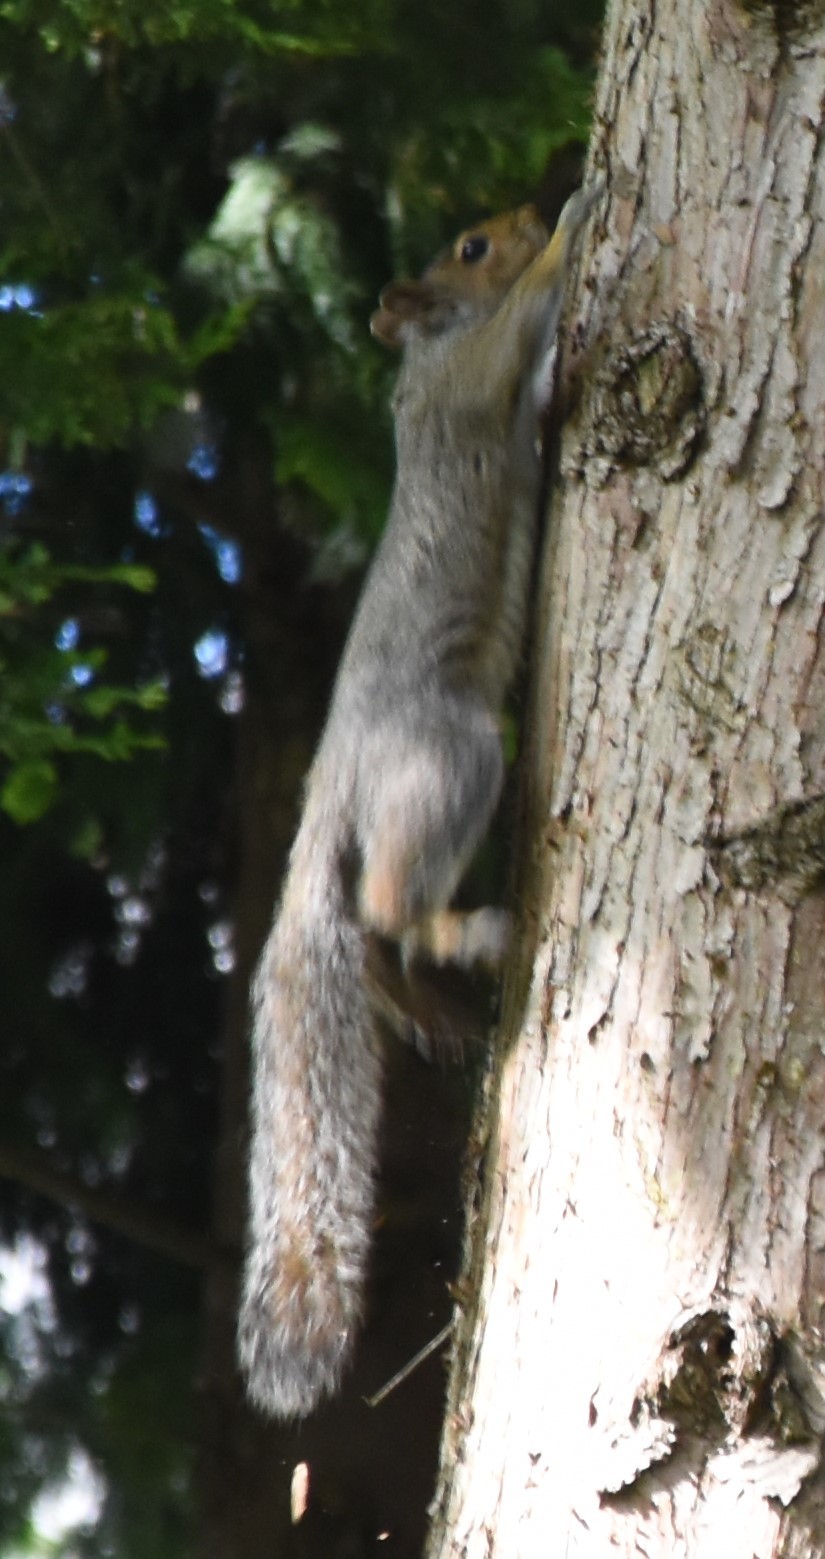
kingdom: Animalia
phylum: Chordata
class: Mammalia
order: Rodentia
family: Sciuridae
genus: Sciurus
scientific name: Sciurus carolinensis
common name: Eastern gray squirrel
